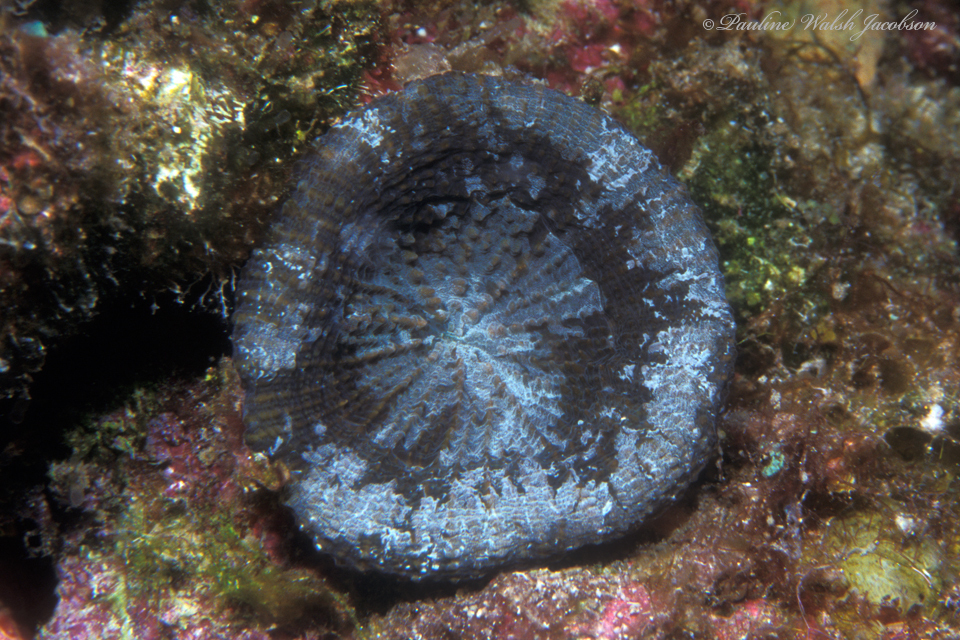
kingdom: Animalia
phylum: Cnidaria
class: Anthozoa
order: Scleractinia
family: Faviidae
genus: Scolymia
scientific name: Scolymia cubensis
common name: Artichoke coral
